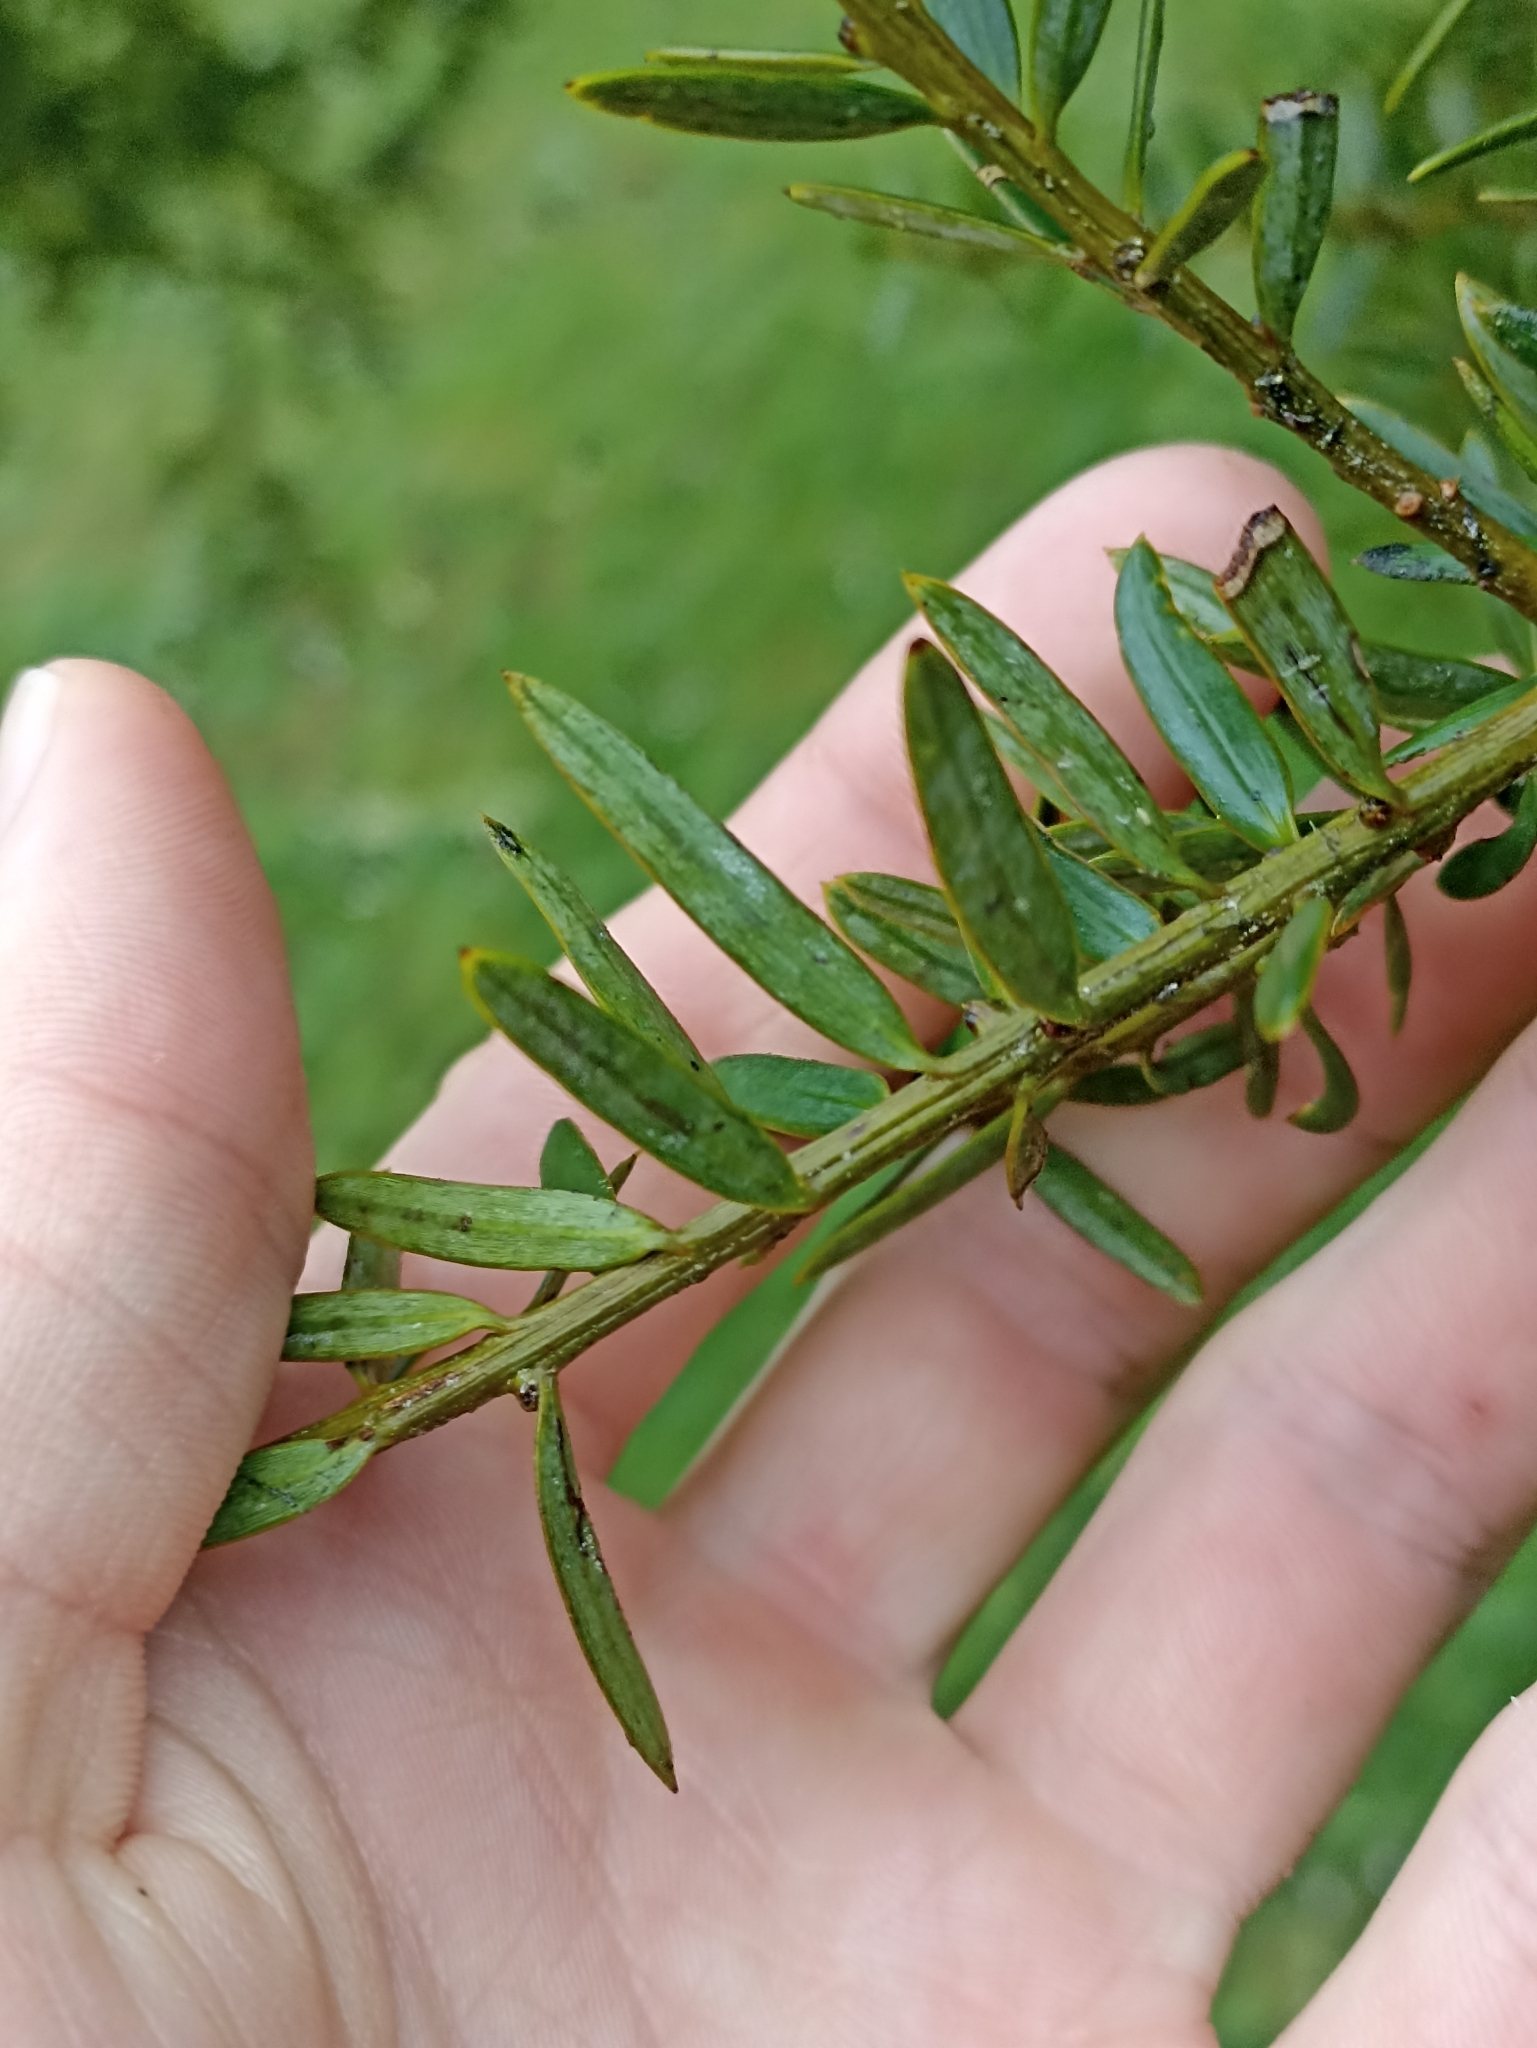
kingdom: Plantae
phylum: Tracheophyta
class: Pinopsida
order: Pinales
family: Podocarpaceae
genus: Podocarpus
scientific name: Podocarpus totara
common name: Totara
